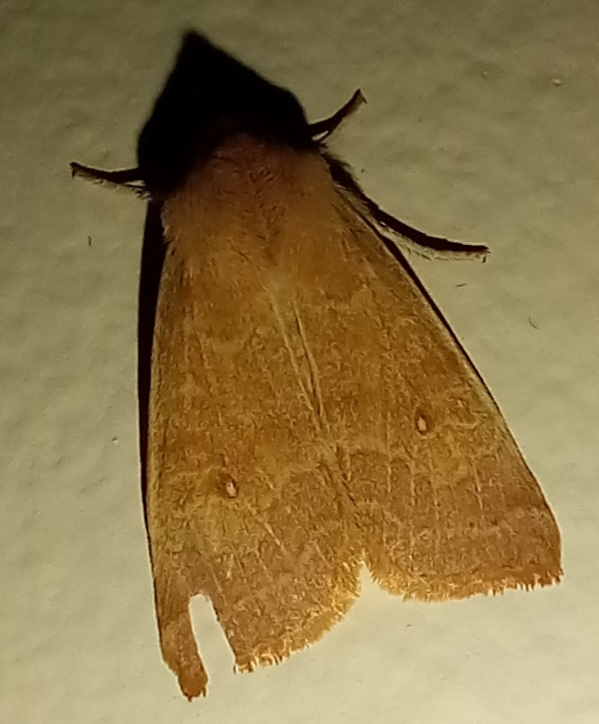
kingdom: Animalia
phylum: Arthropoda
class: Insecta
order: Lepidoptera
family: Noctuidae
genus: Xanthia
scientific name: Xanthia ocellaris
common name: Pale-lemon sallow
